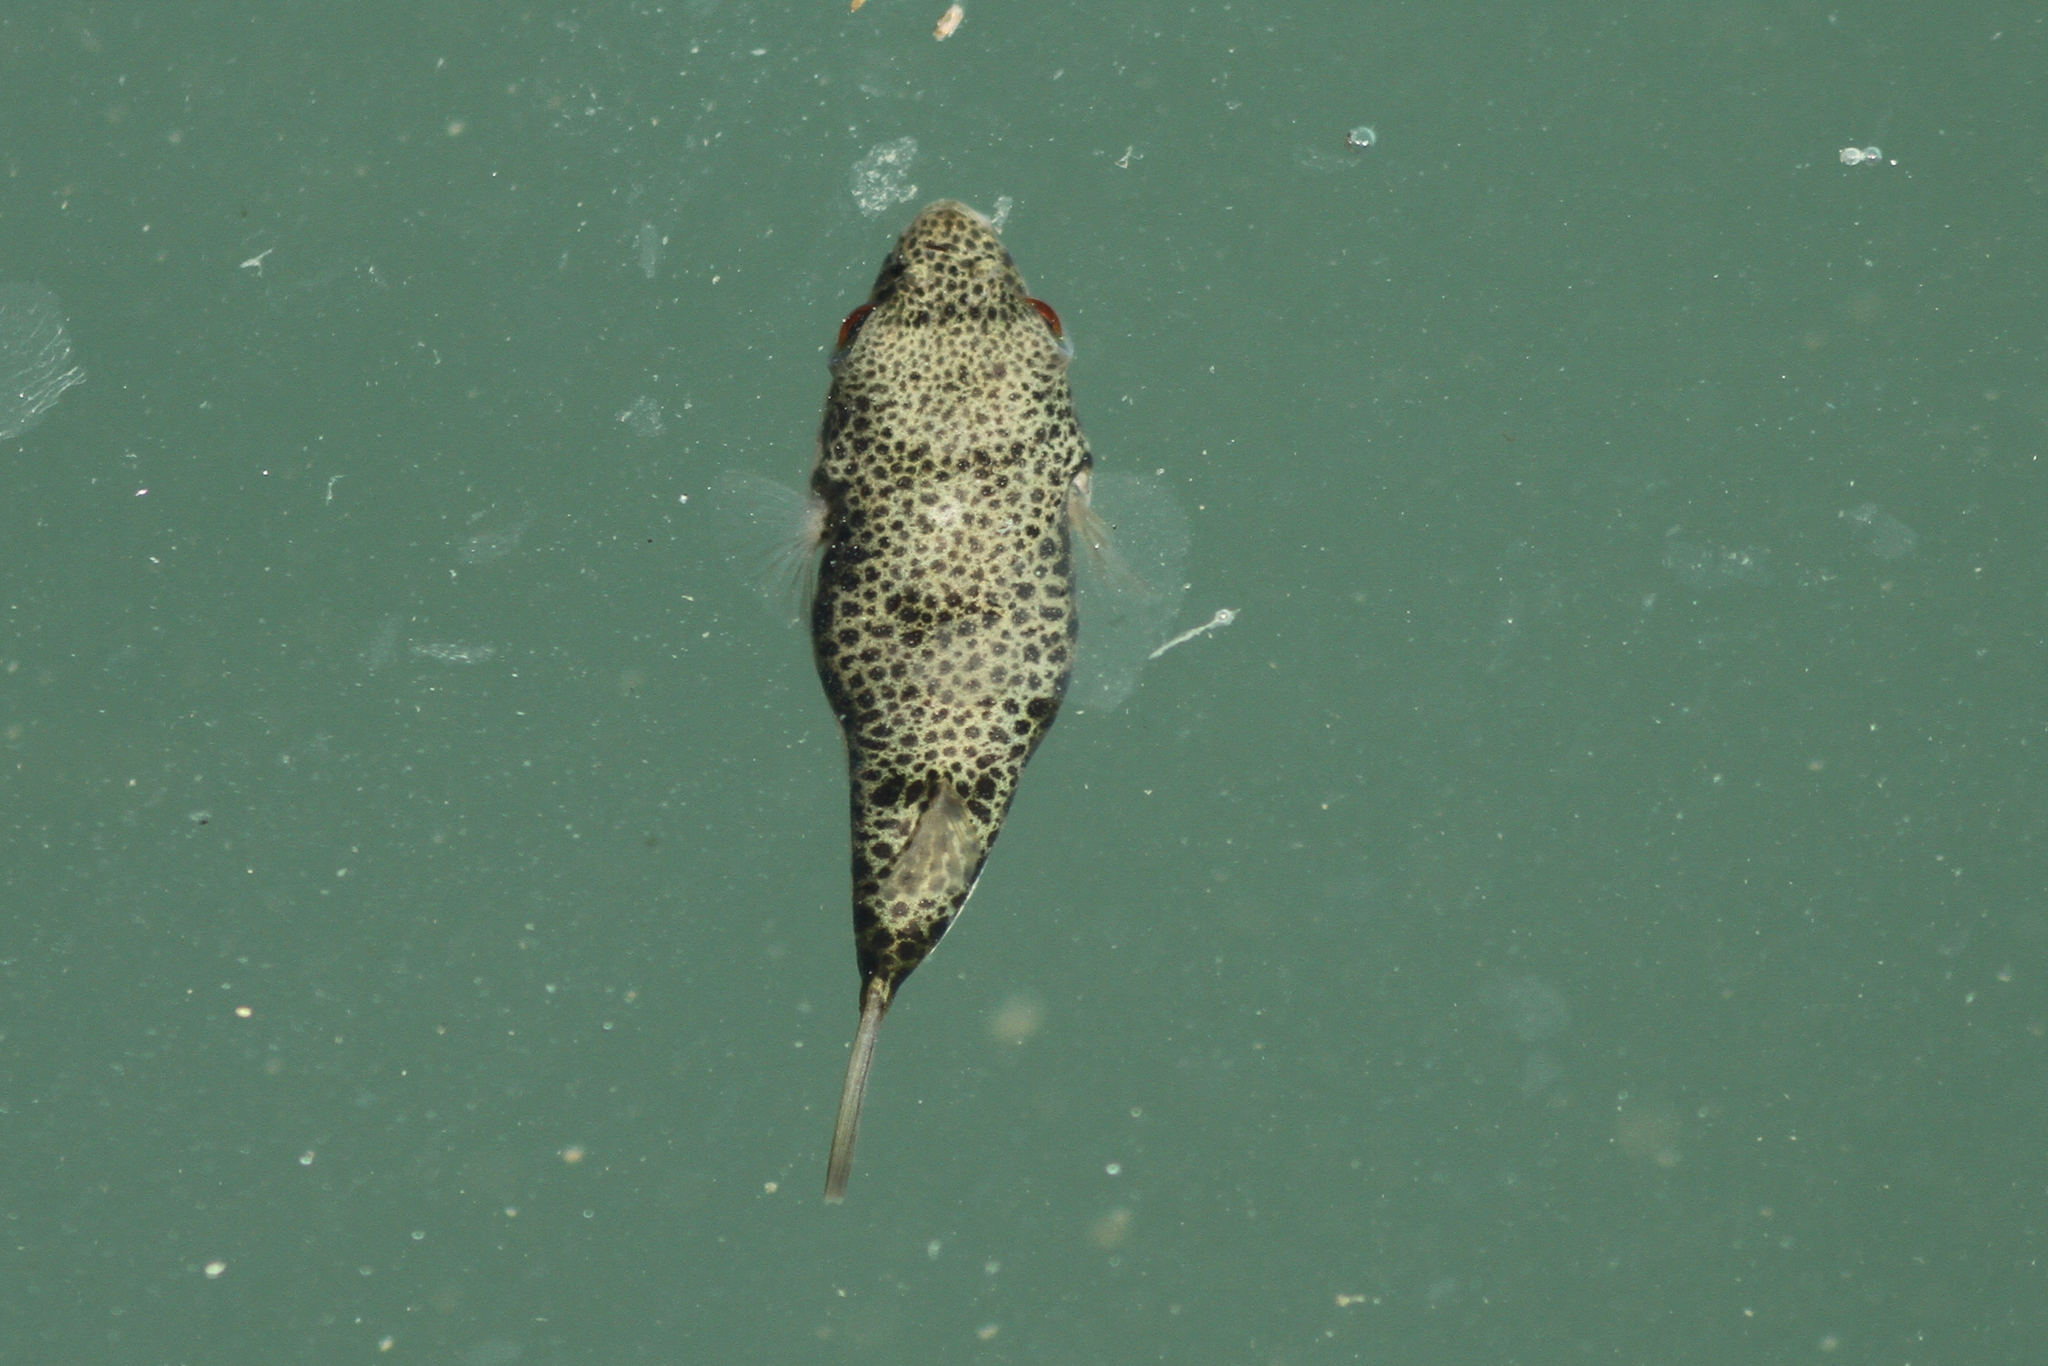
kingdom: Animalia
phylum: Chordata
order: Tetraodontiformes
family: Tetraodontidae
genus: Tetractenos
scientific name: Tetractenos hamiltoni
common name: Common toadfish
